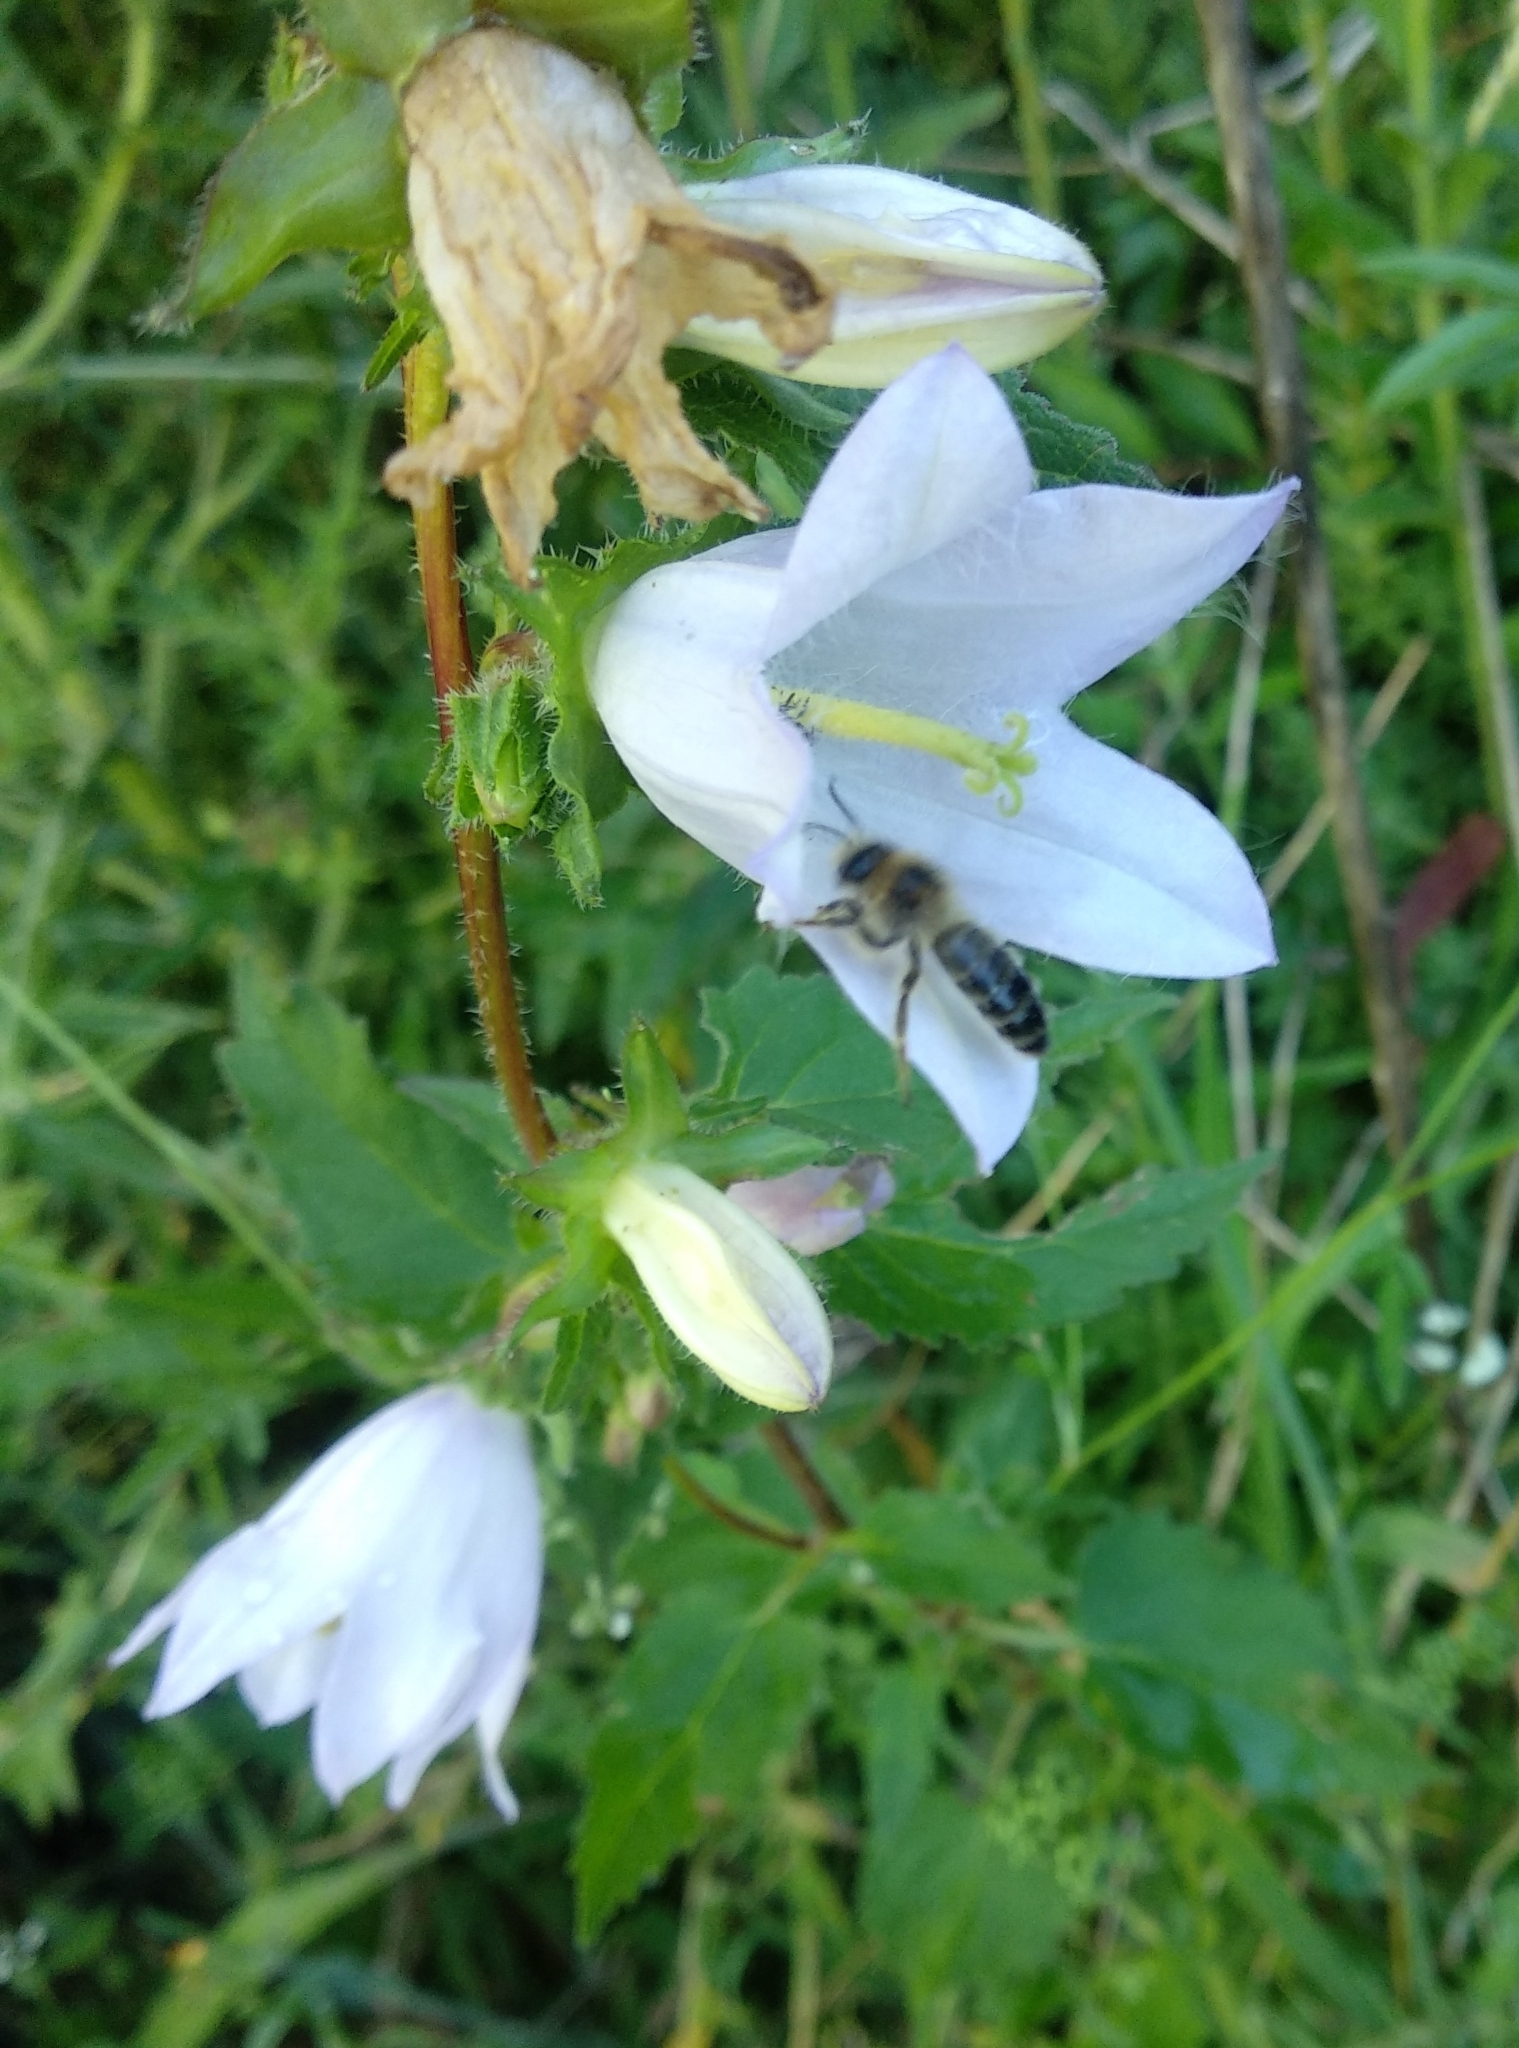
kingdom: Plantae
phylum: Tracheophyta
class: Magnoliopsida
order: Asterales
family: Campanulaceae
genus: Campanula
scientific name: Campanula trachelium
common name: Nettle-leaved bellflower
